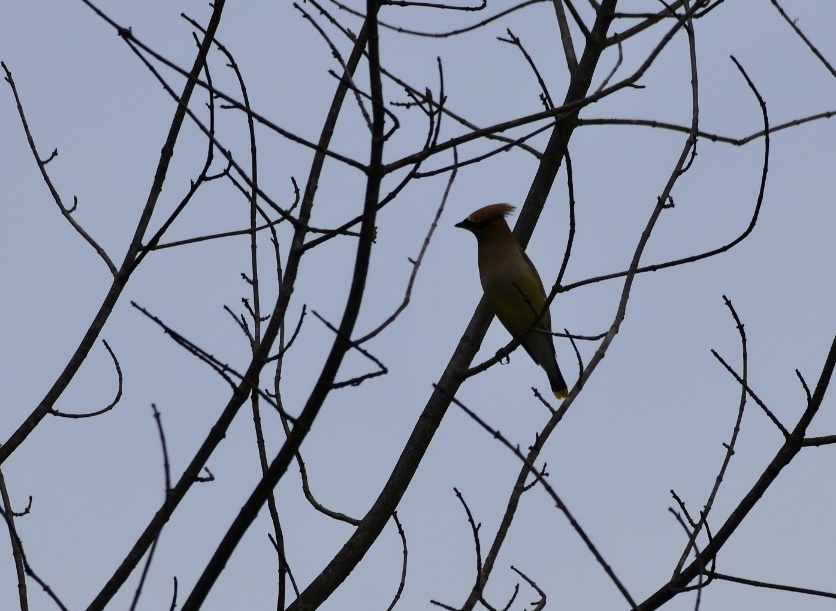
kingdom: Animalia
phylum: Chordata
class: Aves
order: Passeriformes
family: Bombycillidae
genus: Bombycilla
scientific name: Bombycilla cedrorum
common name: Cedar waxwing
